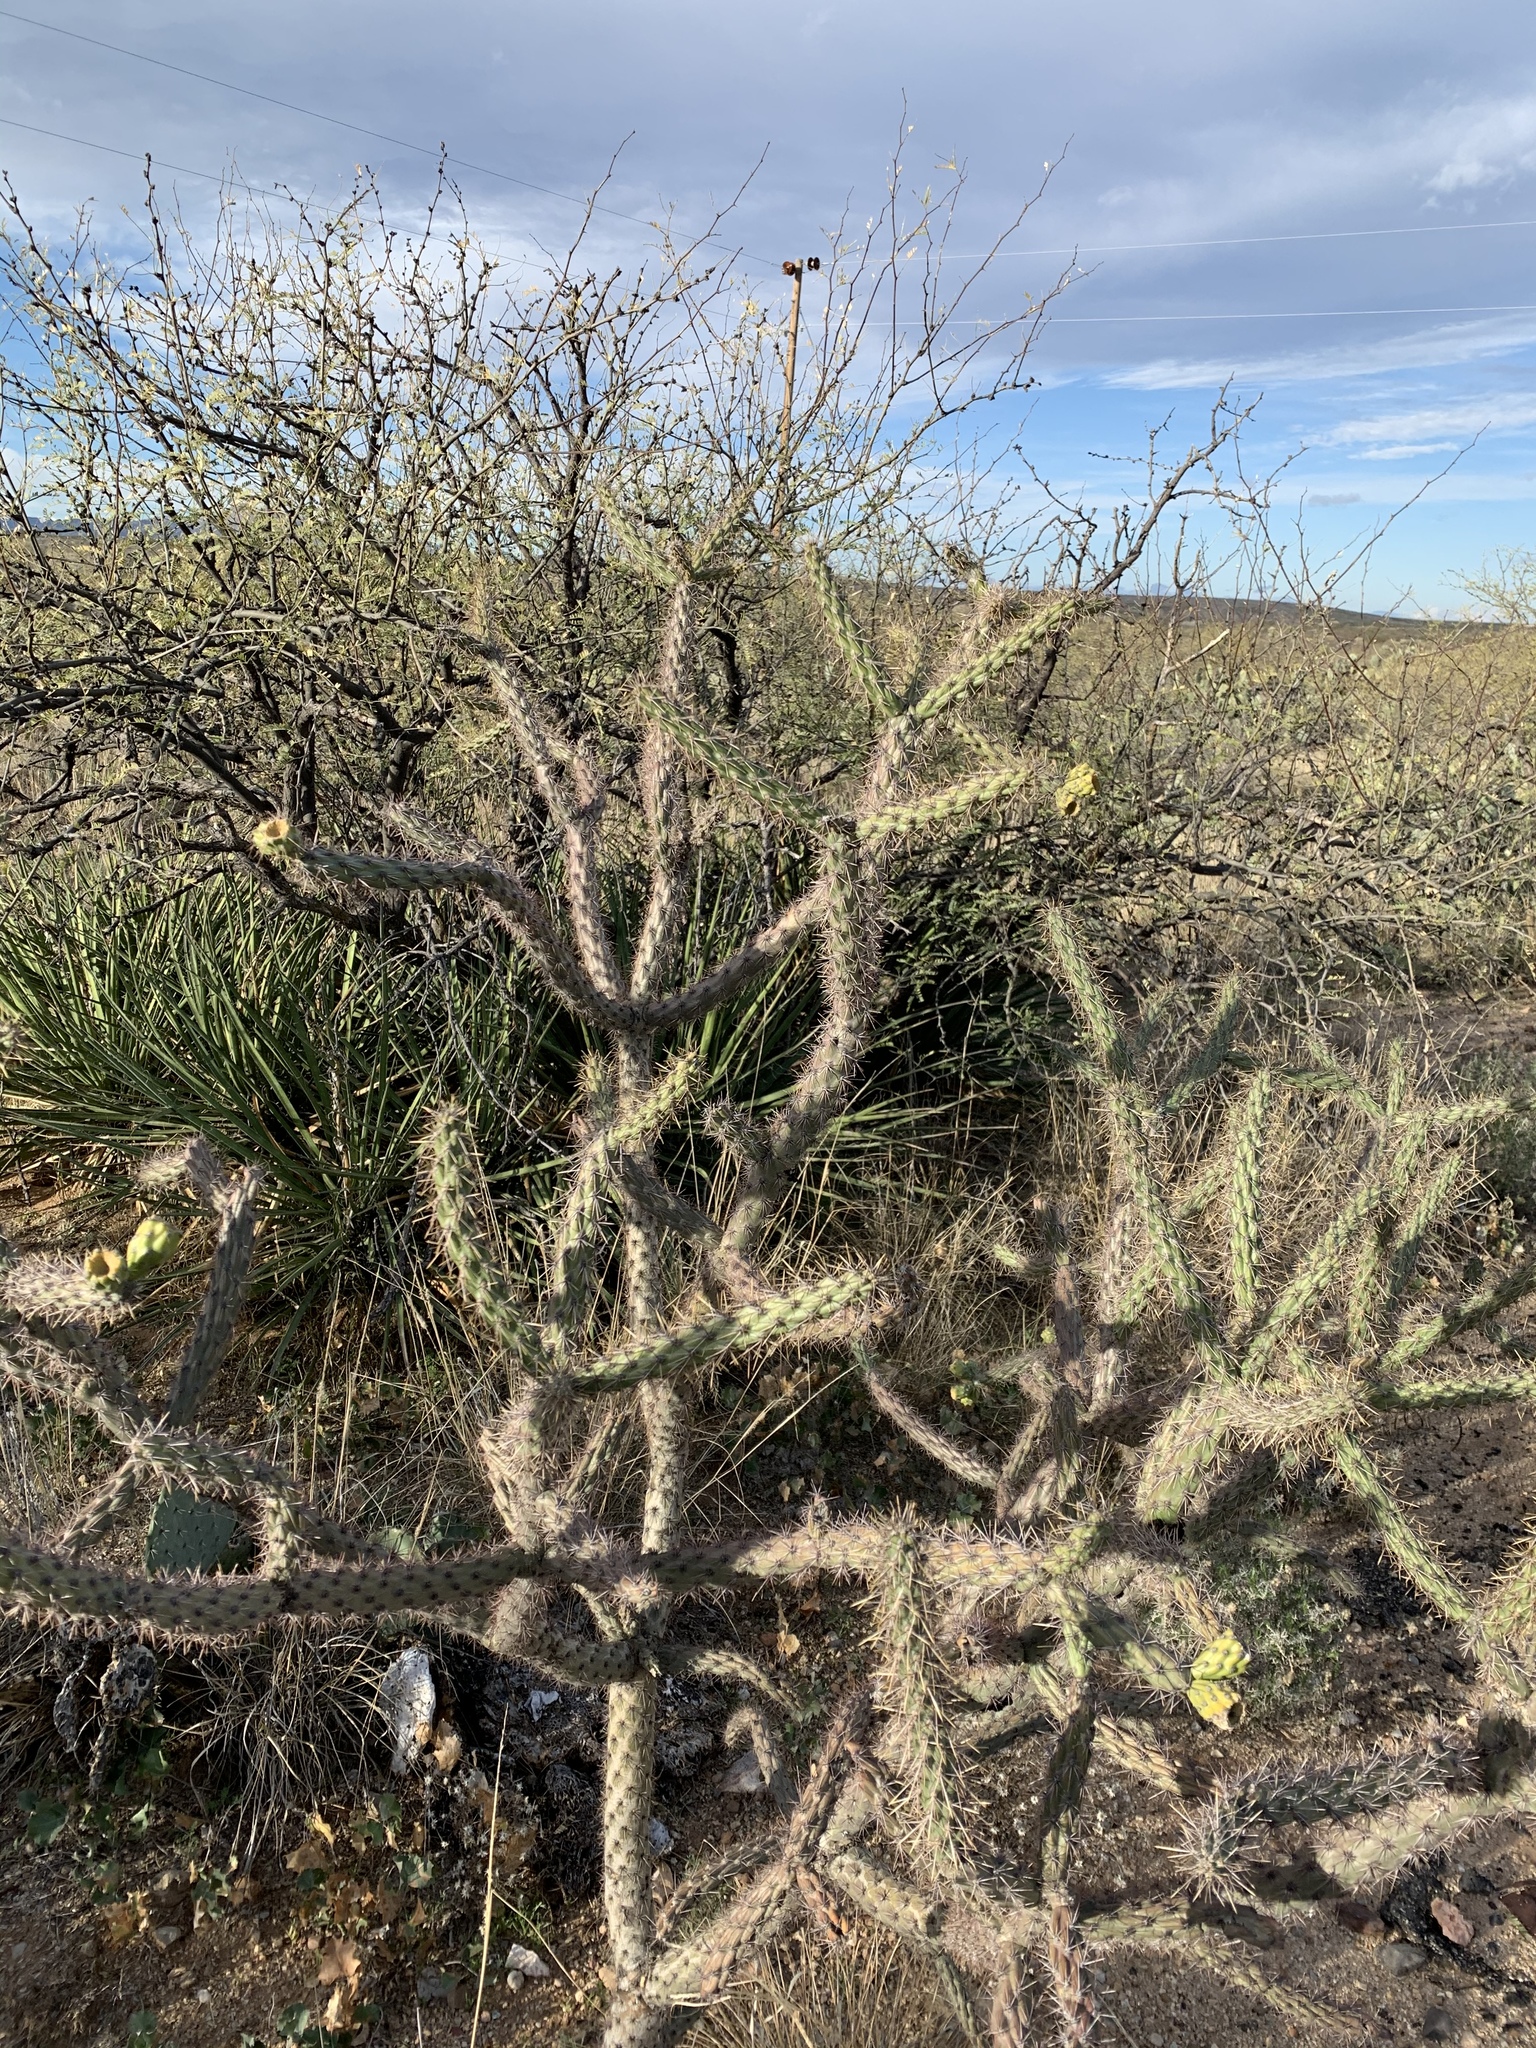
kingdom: Plantae
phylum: Tracheophyta
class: Magnoliopsida
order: Caryophyllales
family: Cactaceae
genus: Cylindropuntia
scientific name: Cylindropuntia imbricata
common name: Candelabrum cactus
